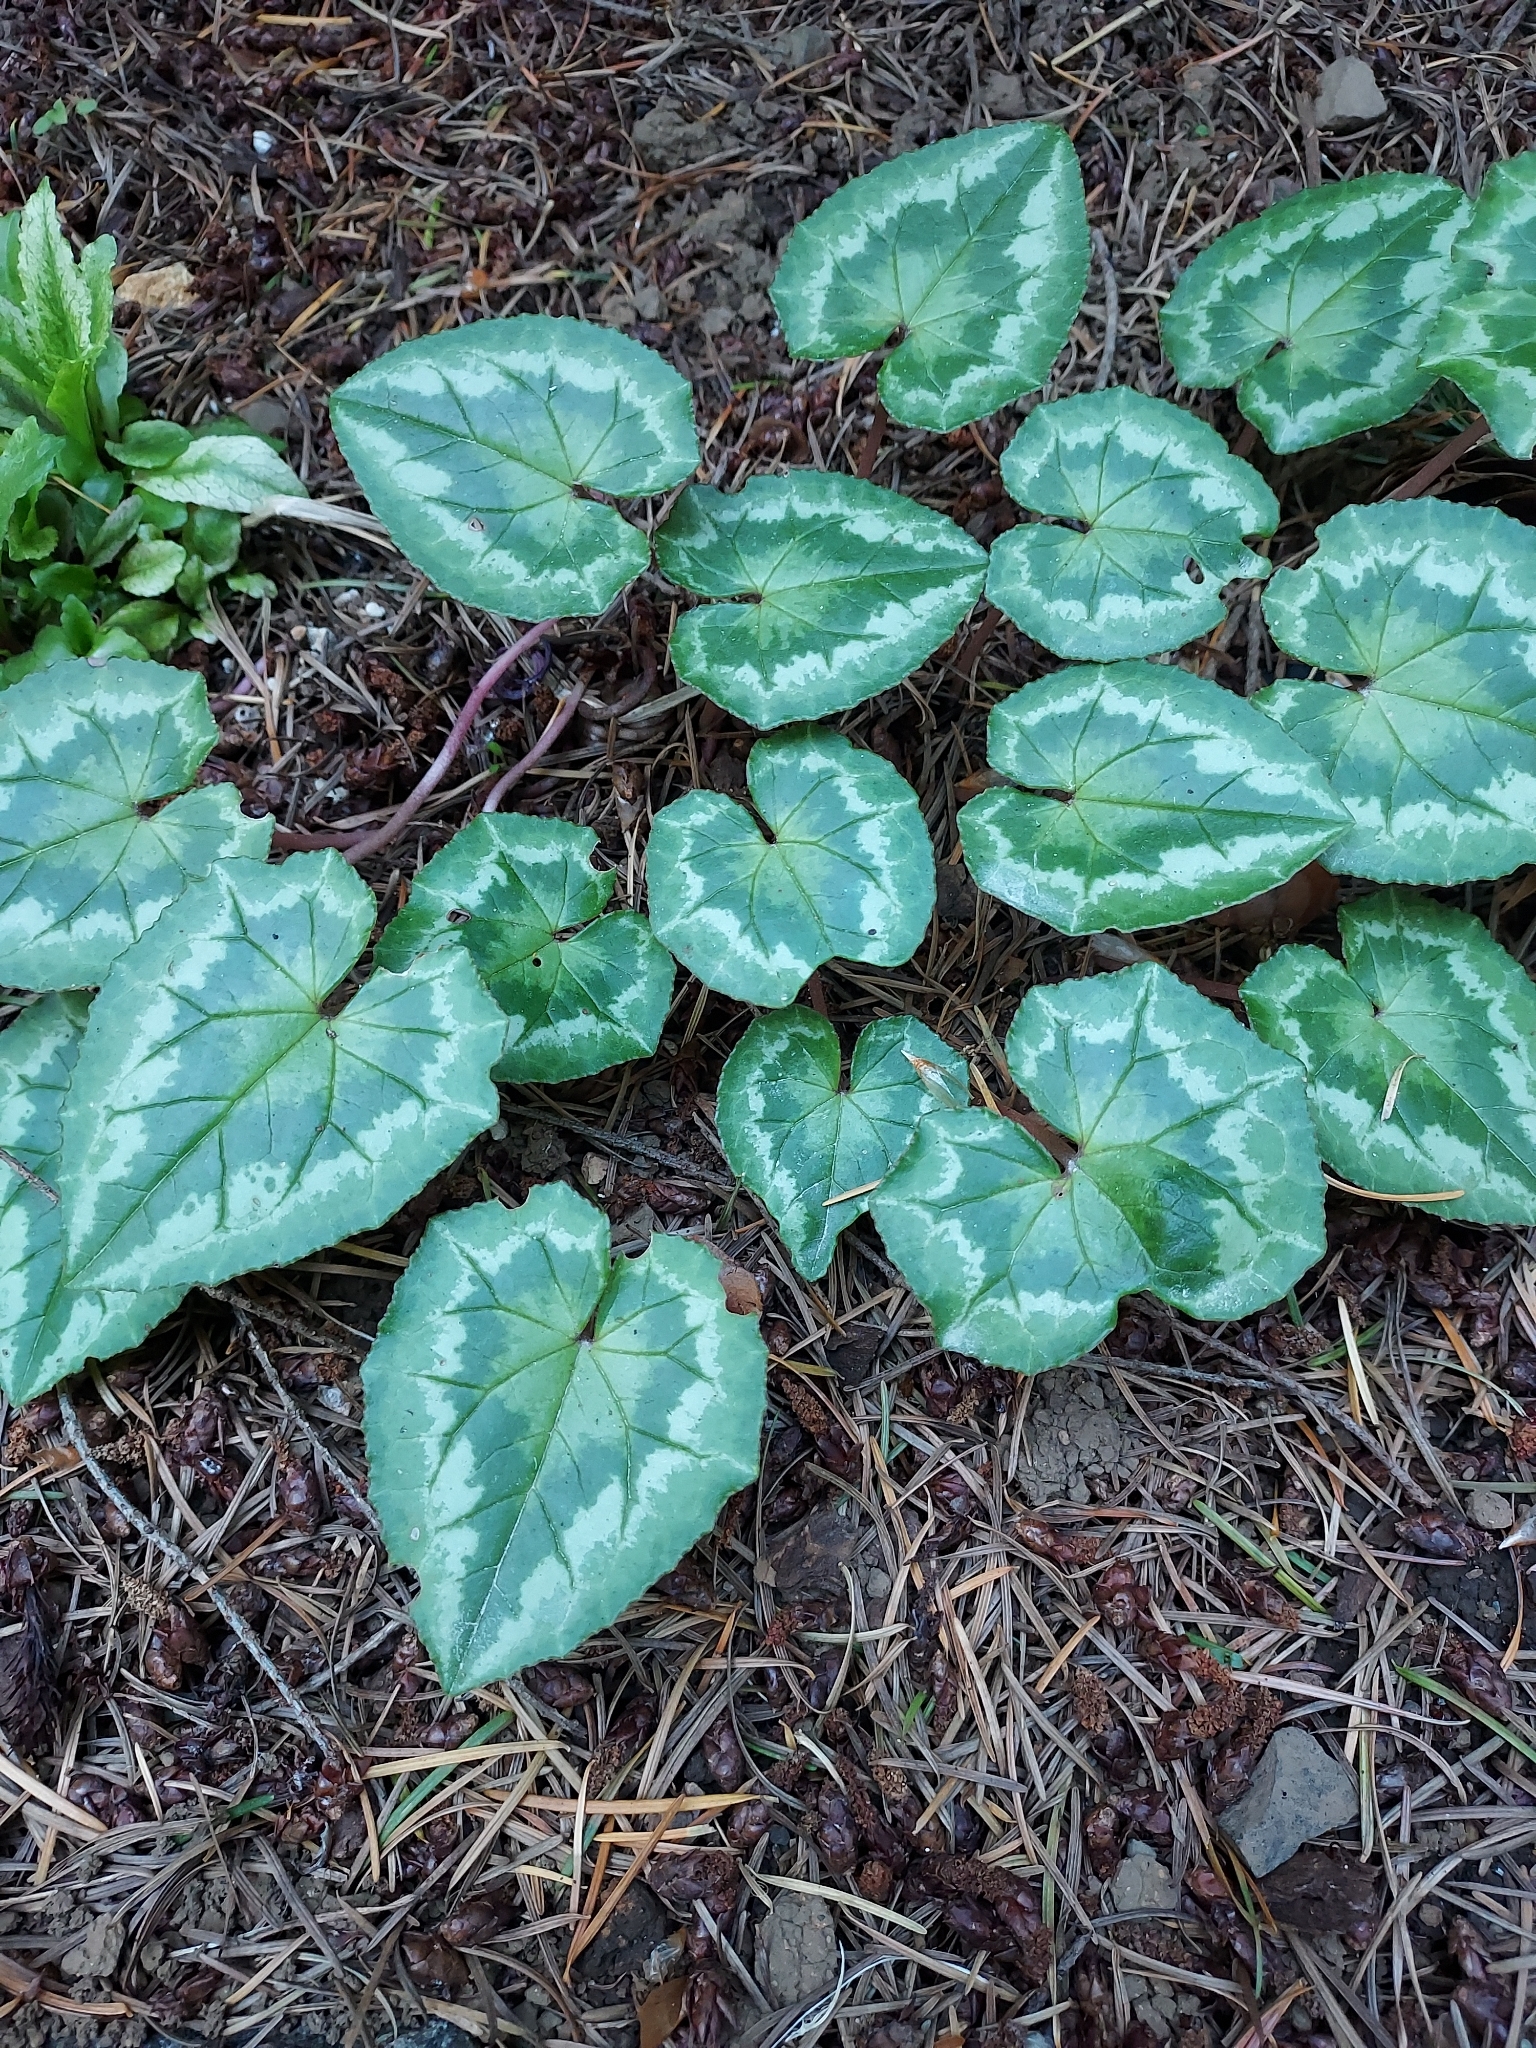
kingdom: Plantae
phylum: Tracheophyta
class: Magnoliopsida
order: Ericales
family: Primulaceae
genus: Cyclamen
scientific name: Cyclamen hederifolium
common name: Sowbread
